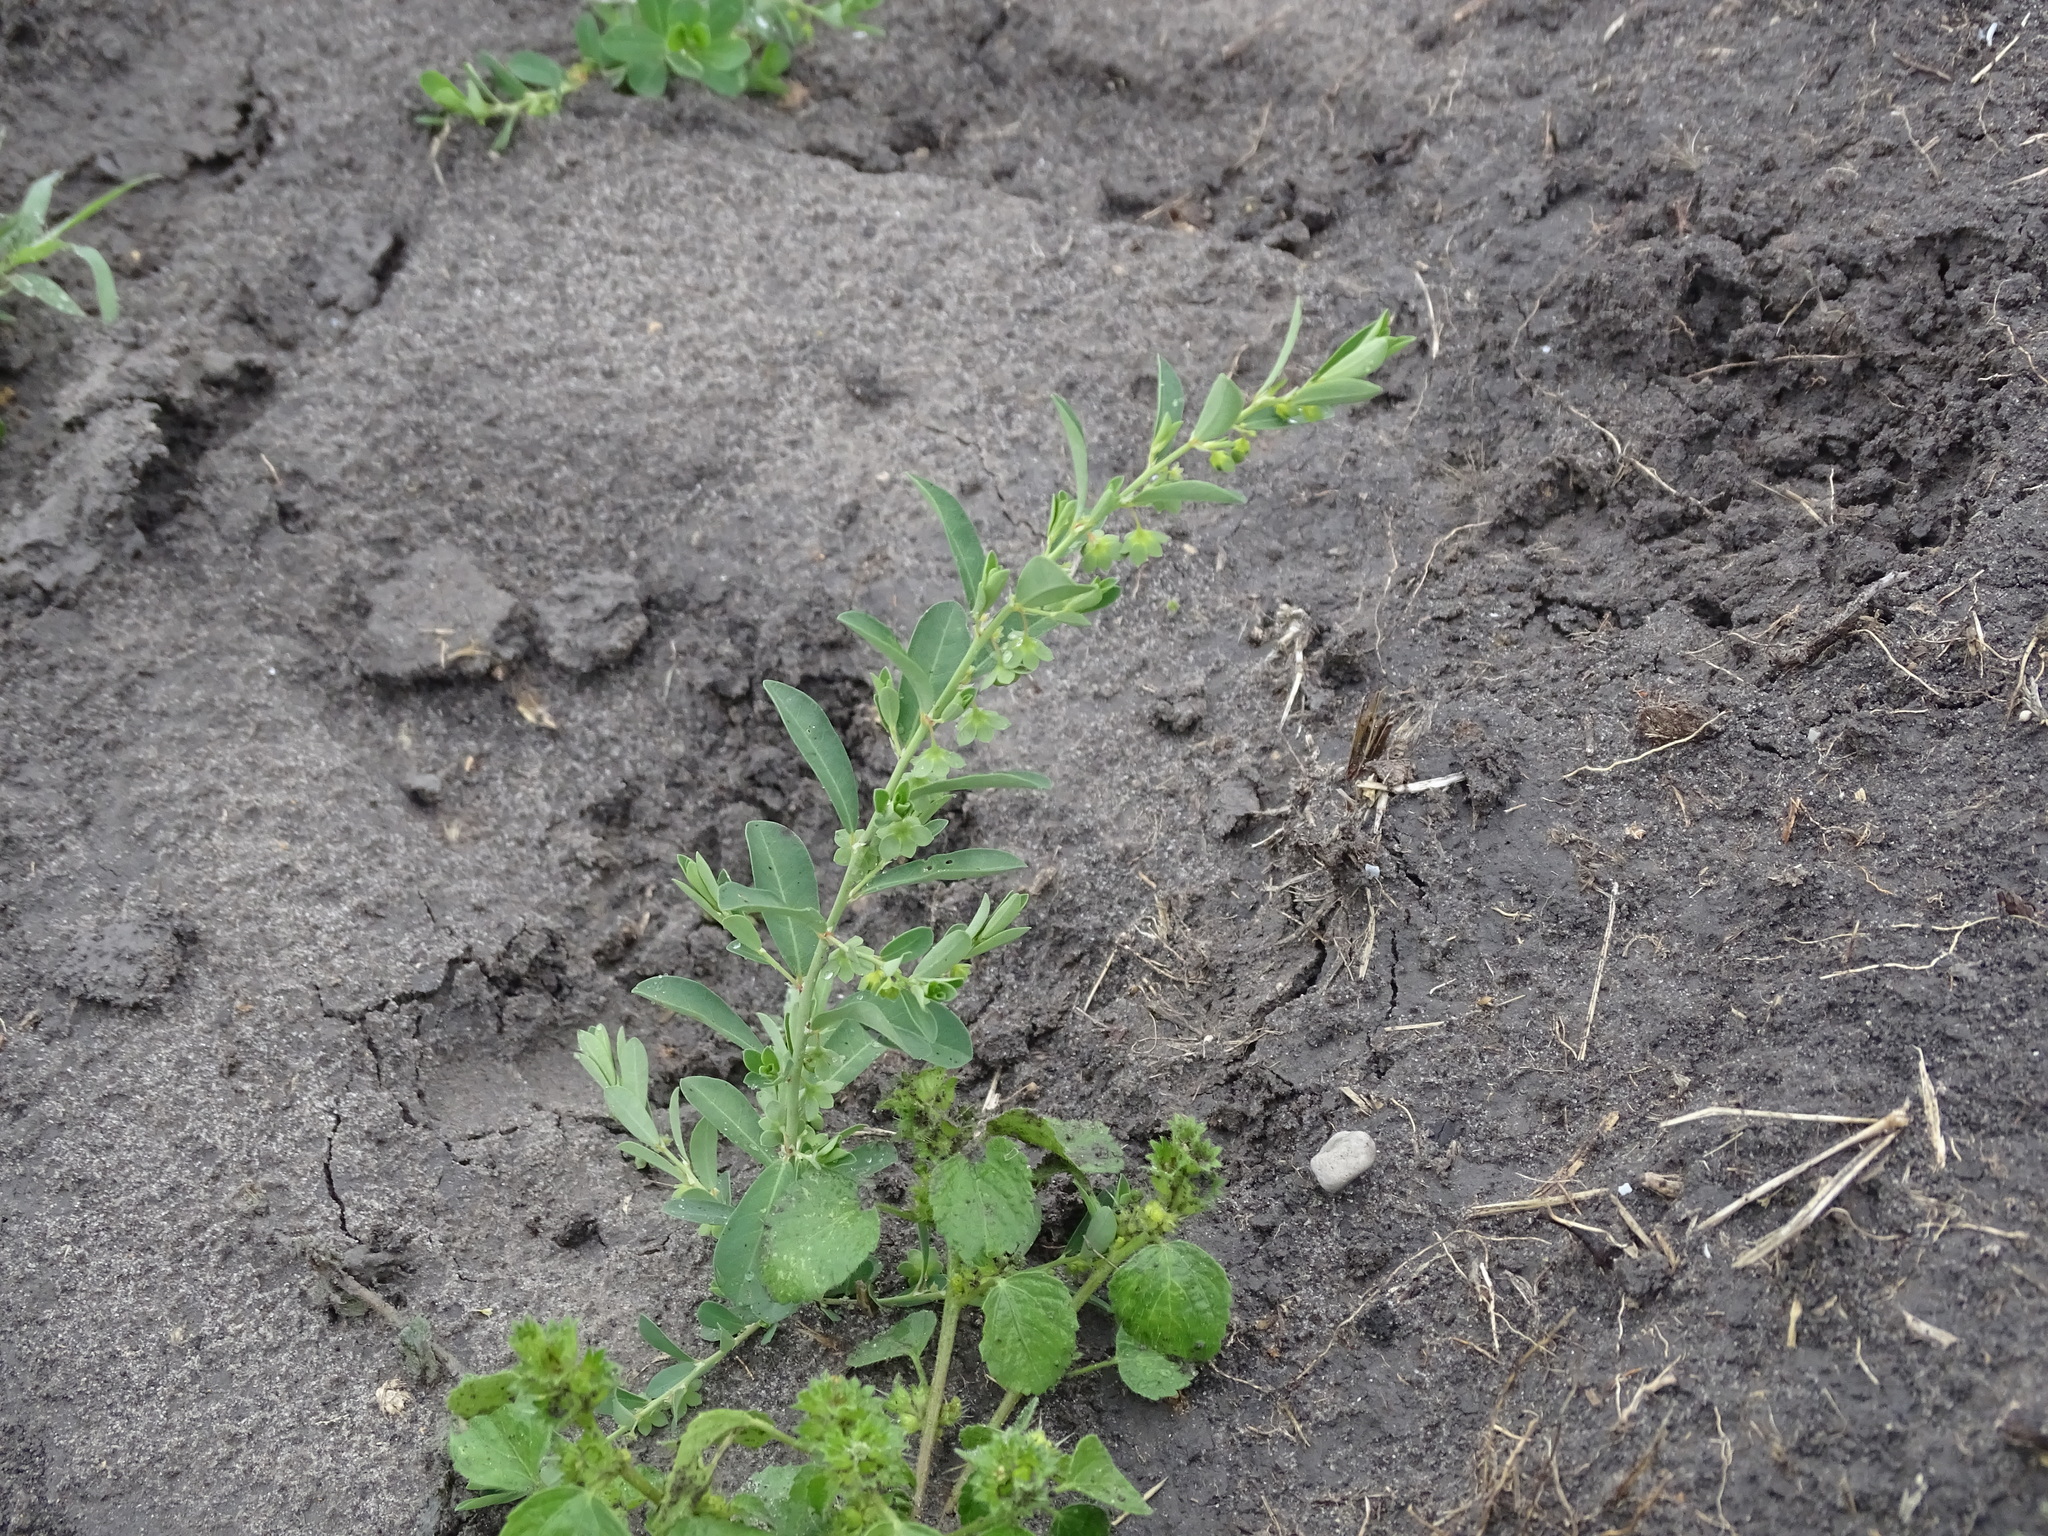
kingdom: Plantae
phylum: Tracheophyta
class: Magnoliopsida
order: Malpighiales
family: Phyllanthaceae
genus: Phyllanthus
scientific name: Phyllanthus polygonoides
